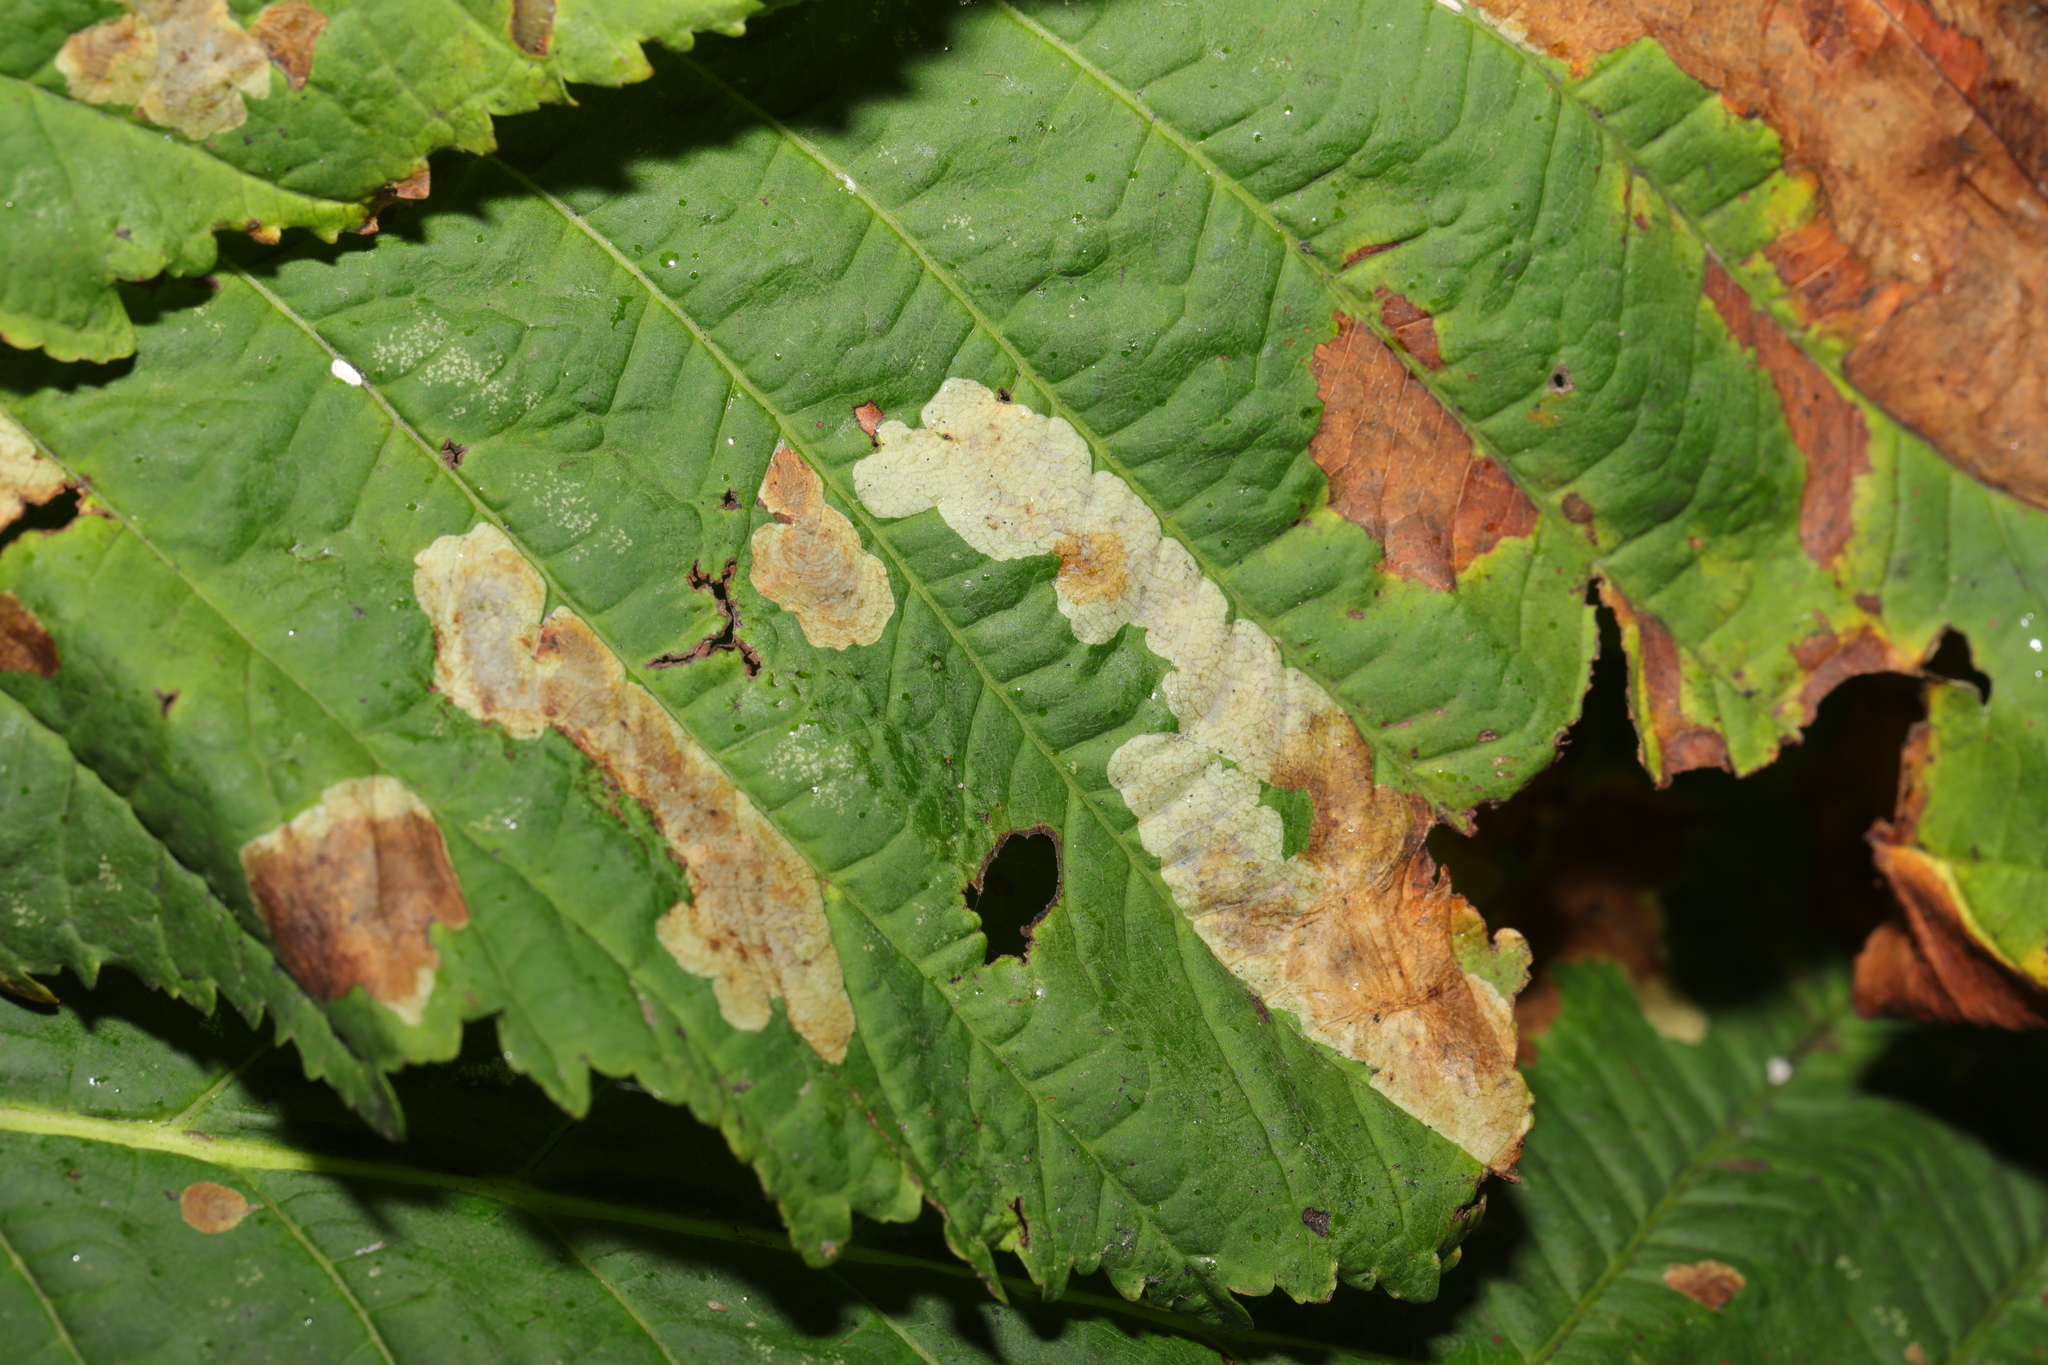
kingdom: Animalia
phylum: Arthropoda
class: Insecta
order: Lepidoptera
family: Gracillariidae
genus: Cameraria
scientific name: Cameraria ohridella
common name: Horse-chestnut leaf-miner
